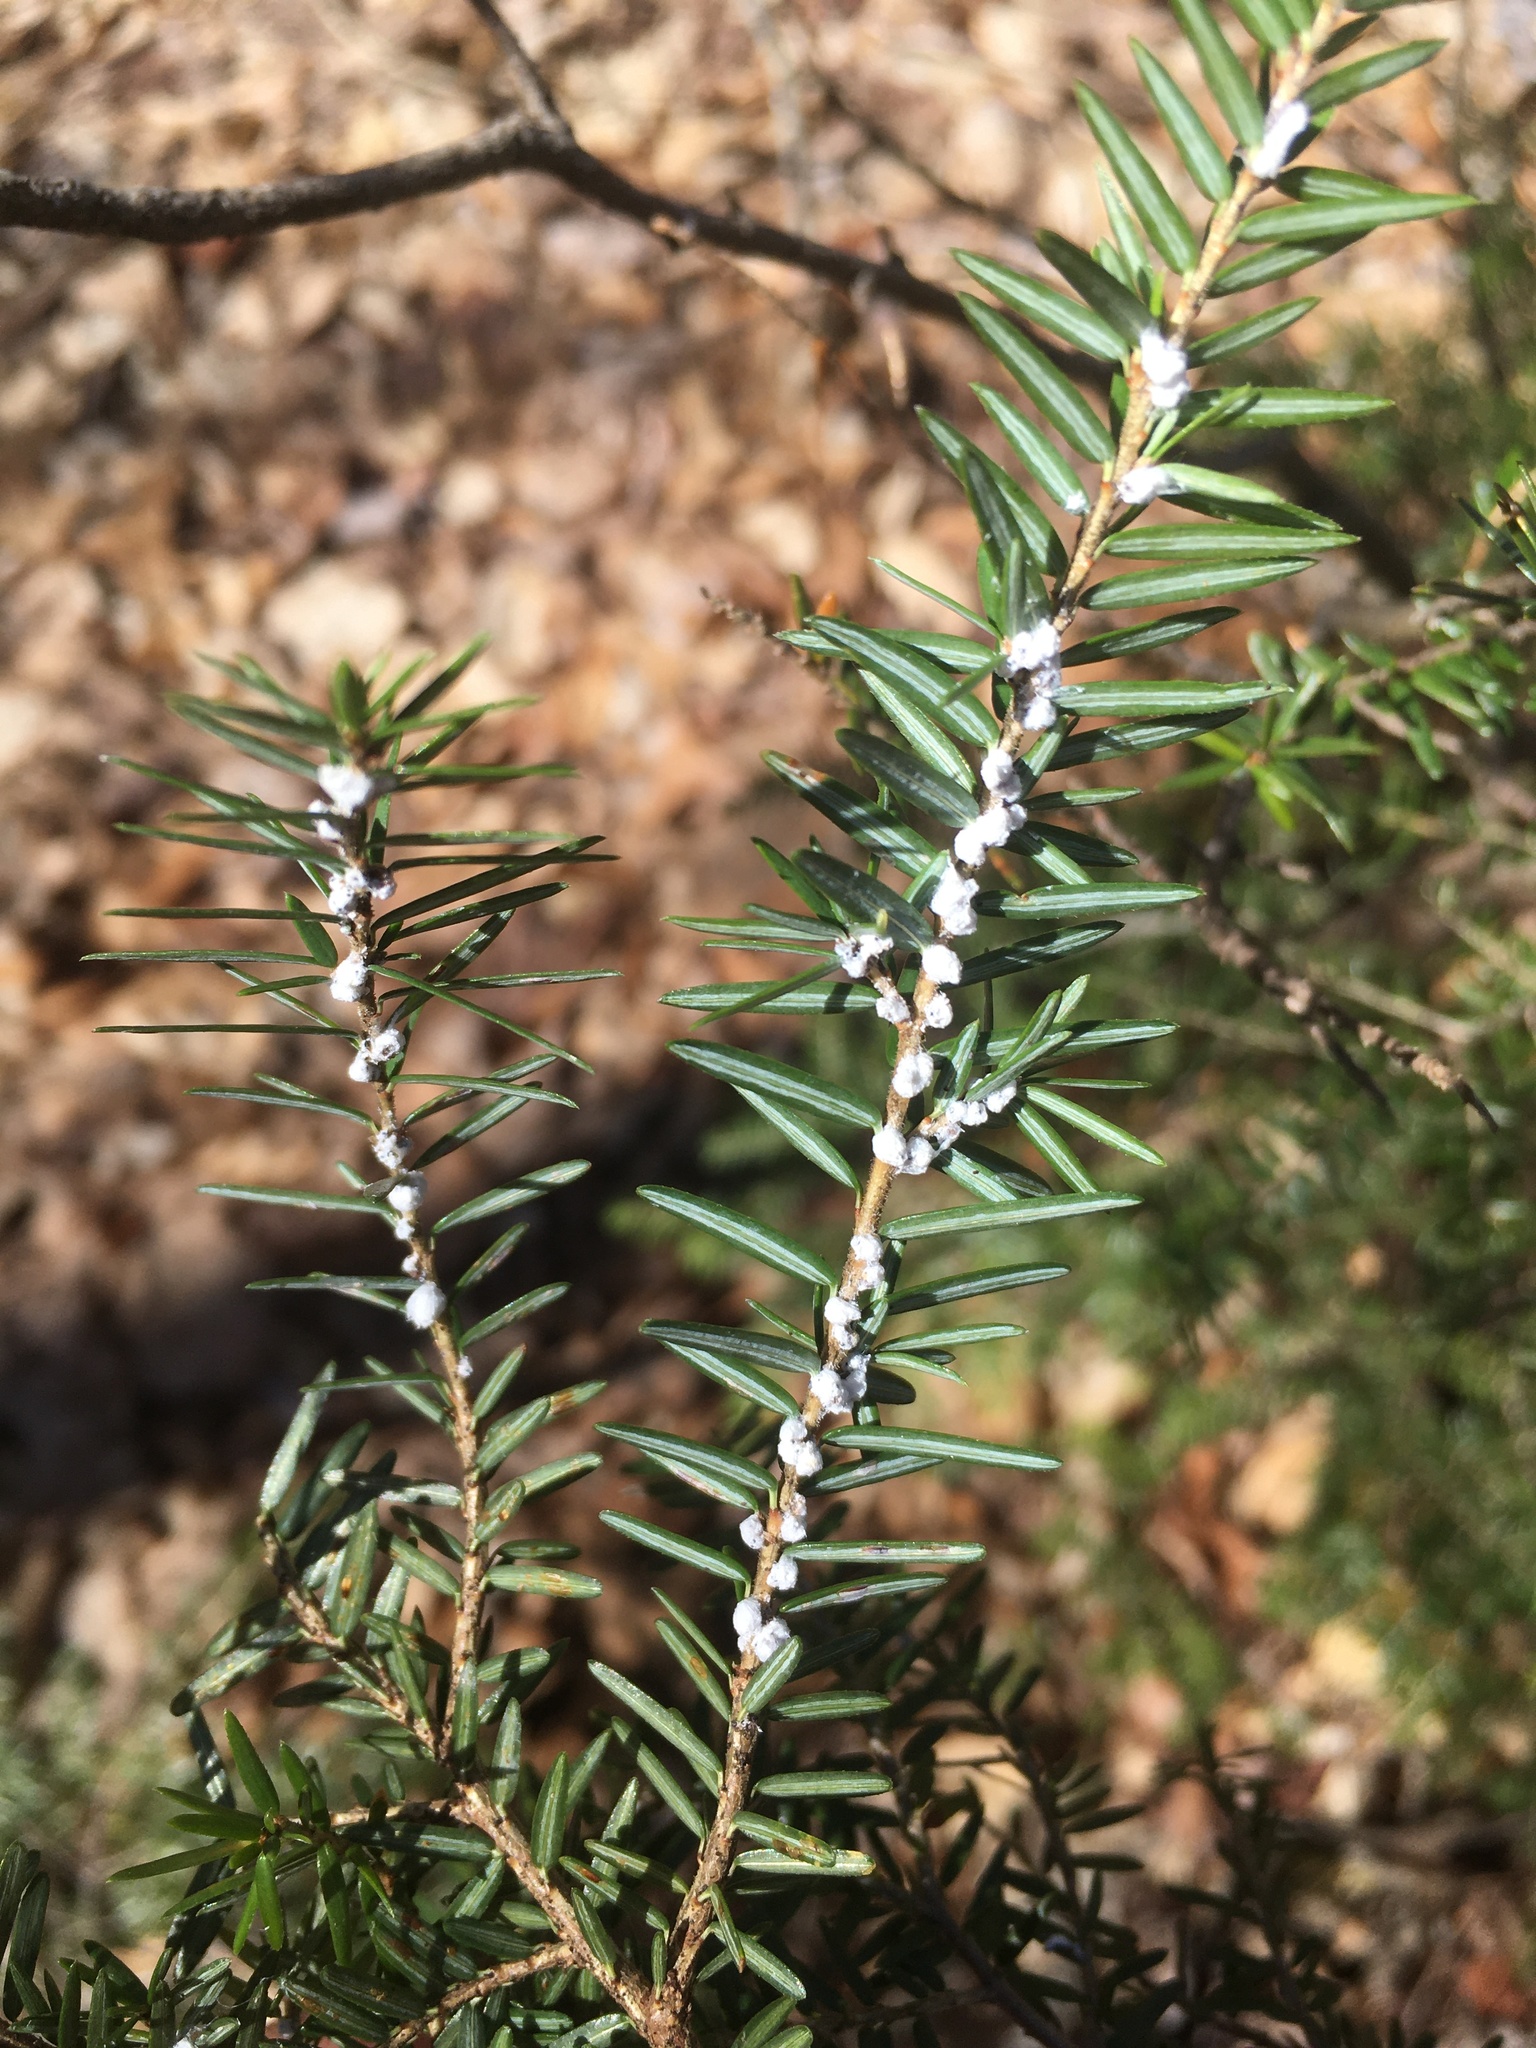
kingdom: Animalia
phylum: Arthropoda
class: Insecta
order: Hemiptera
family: Adelgidae
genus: Adelges
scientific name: Adelges tsugae
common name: Hemlock woolly adelgid
